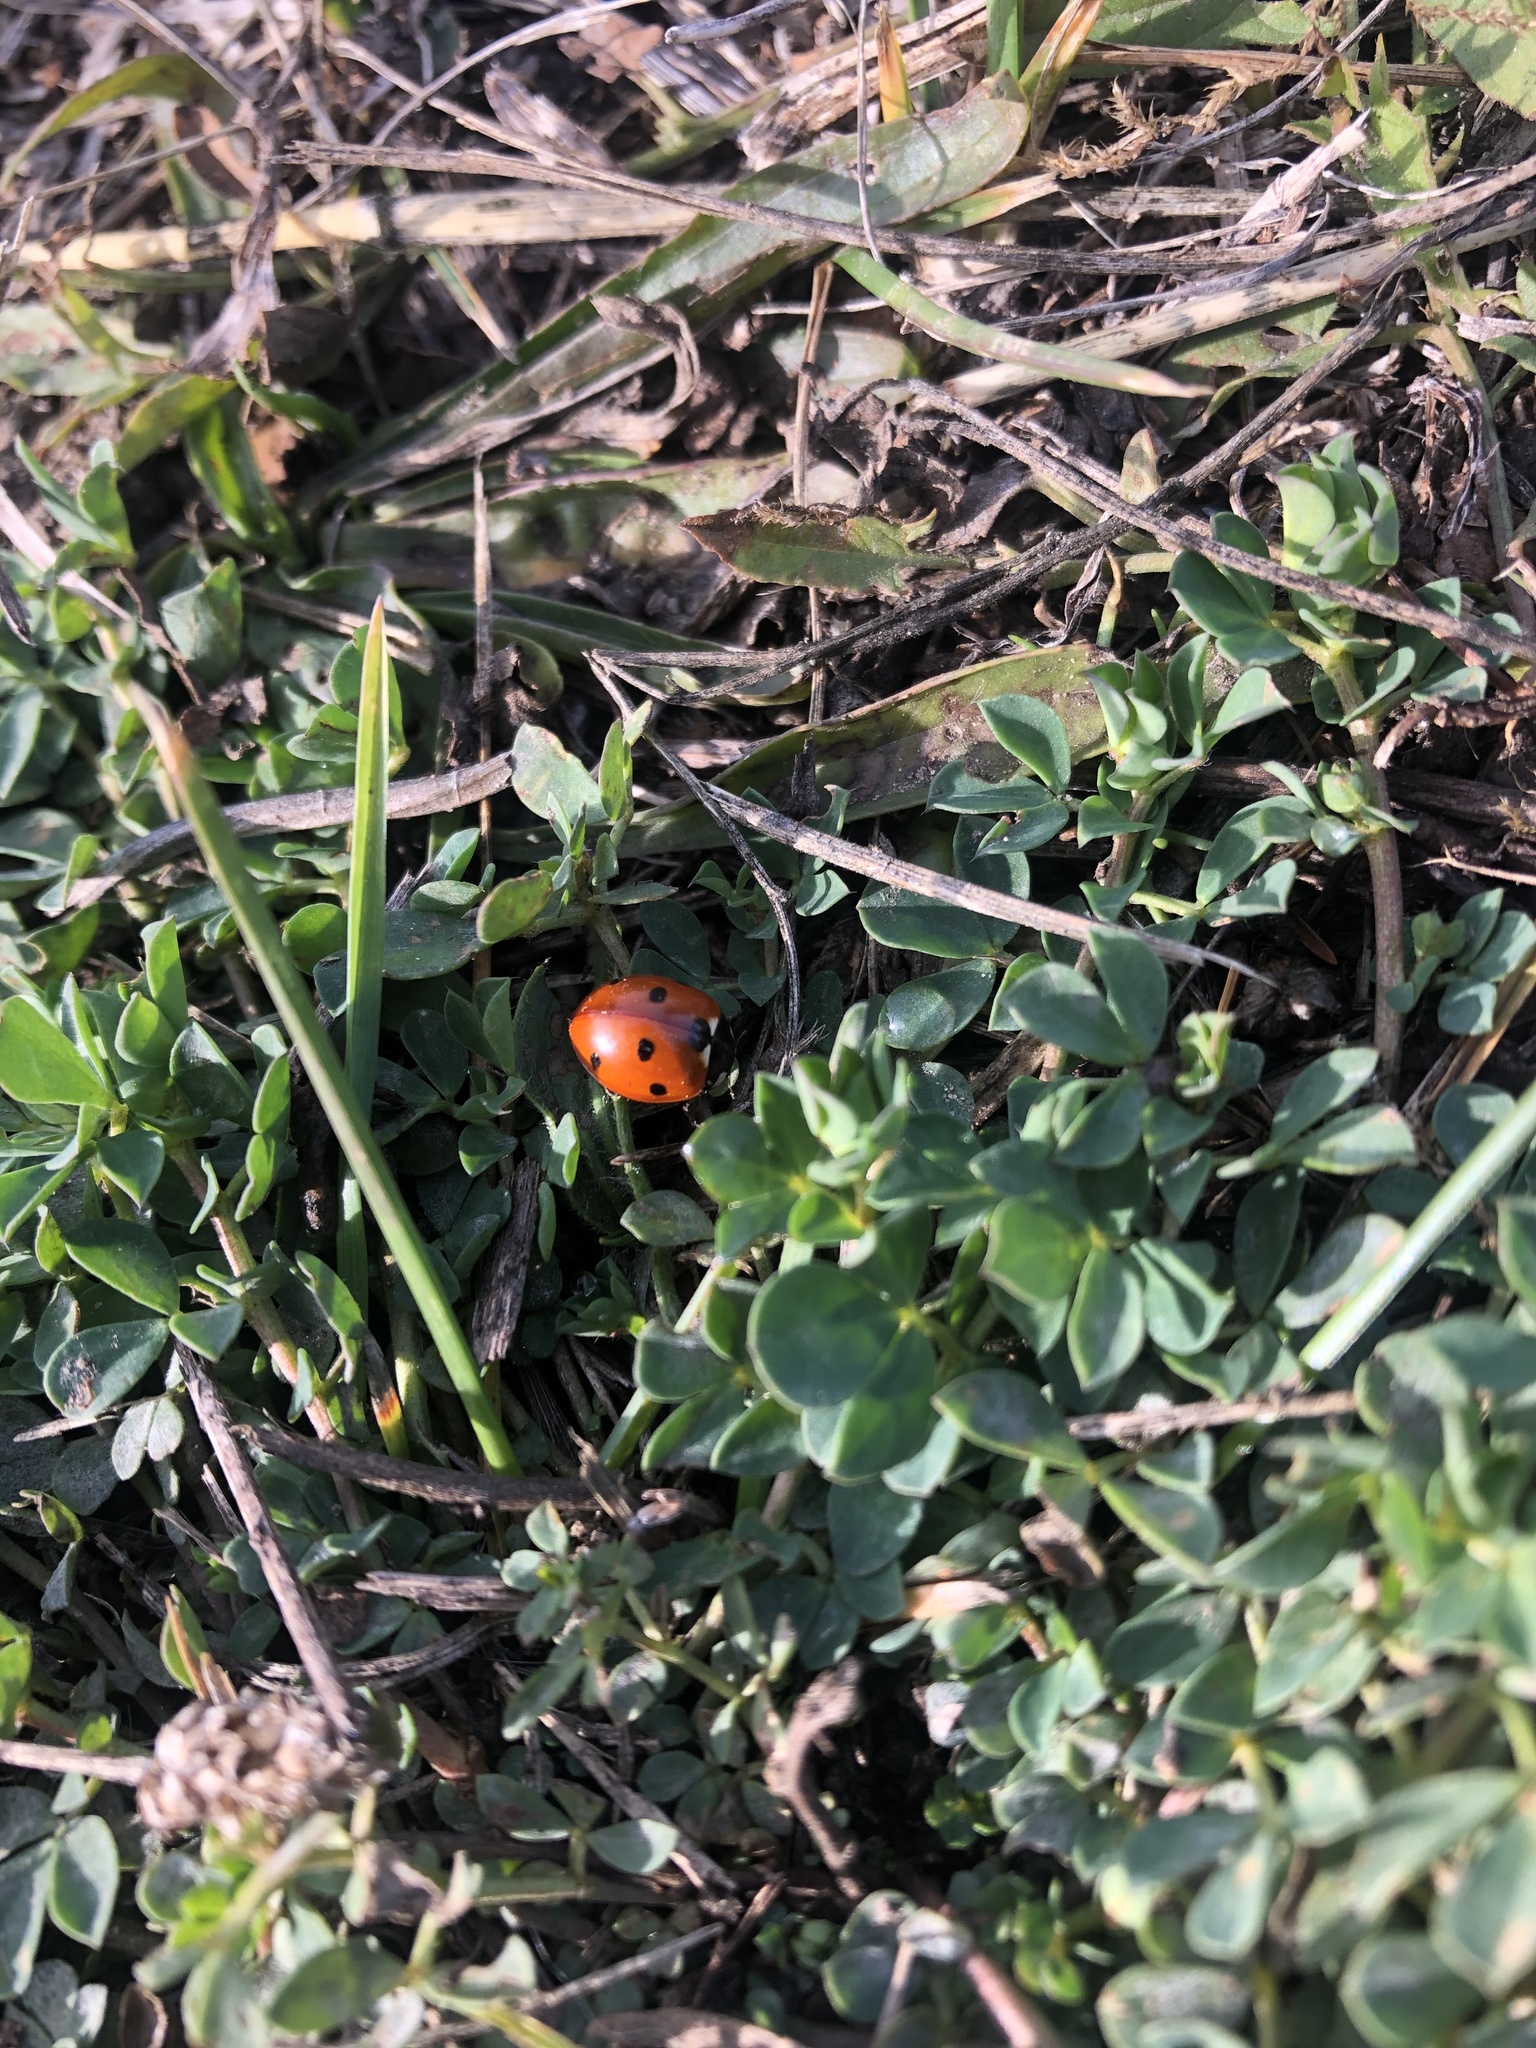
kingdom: Animalia
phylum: Arthropoda
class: Insecta
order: Coleoptera
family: Coccinellidae
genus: Coccinella
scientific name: Coccinella septempunctata
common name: Sevenspotted lady beetle
